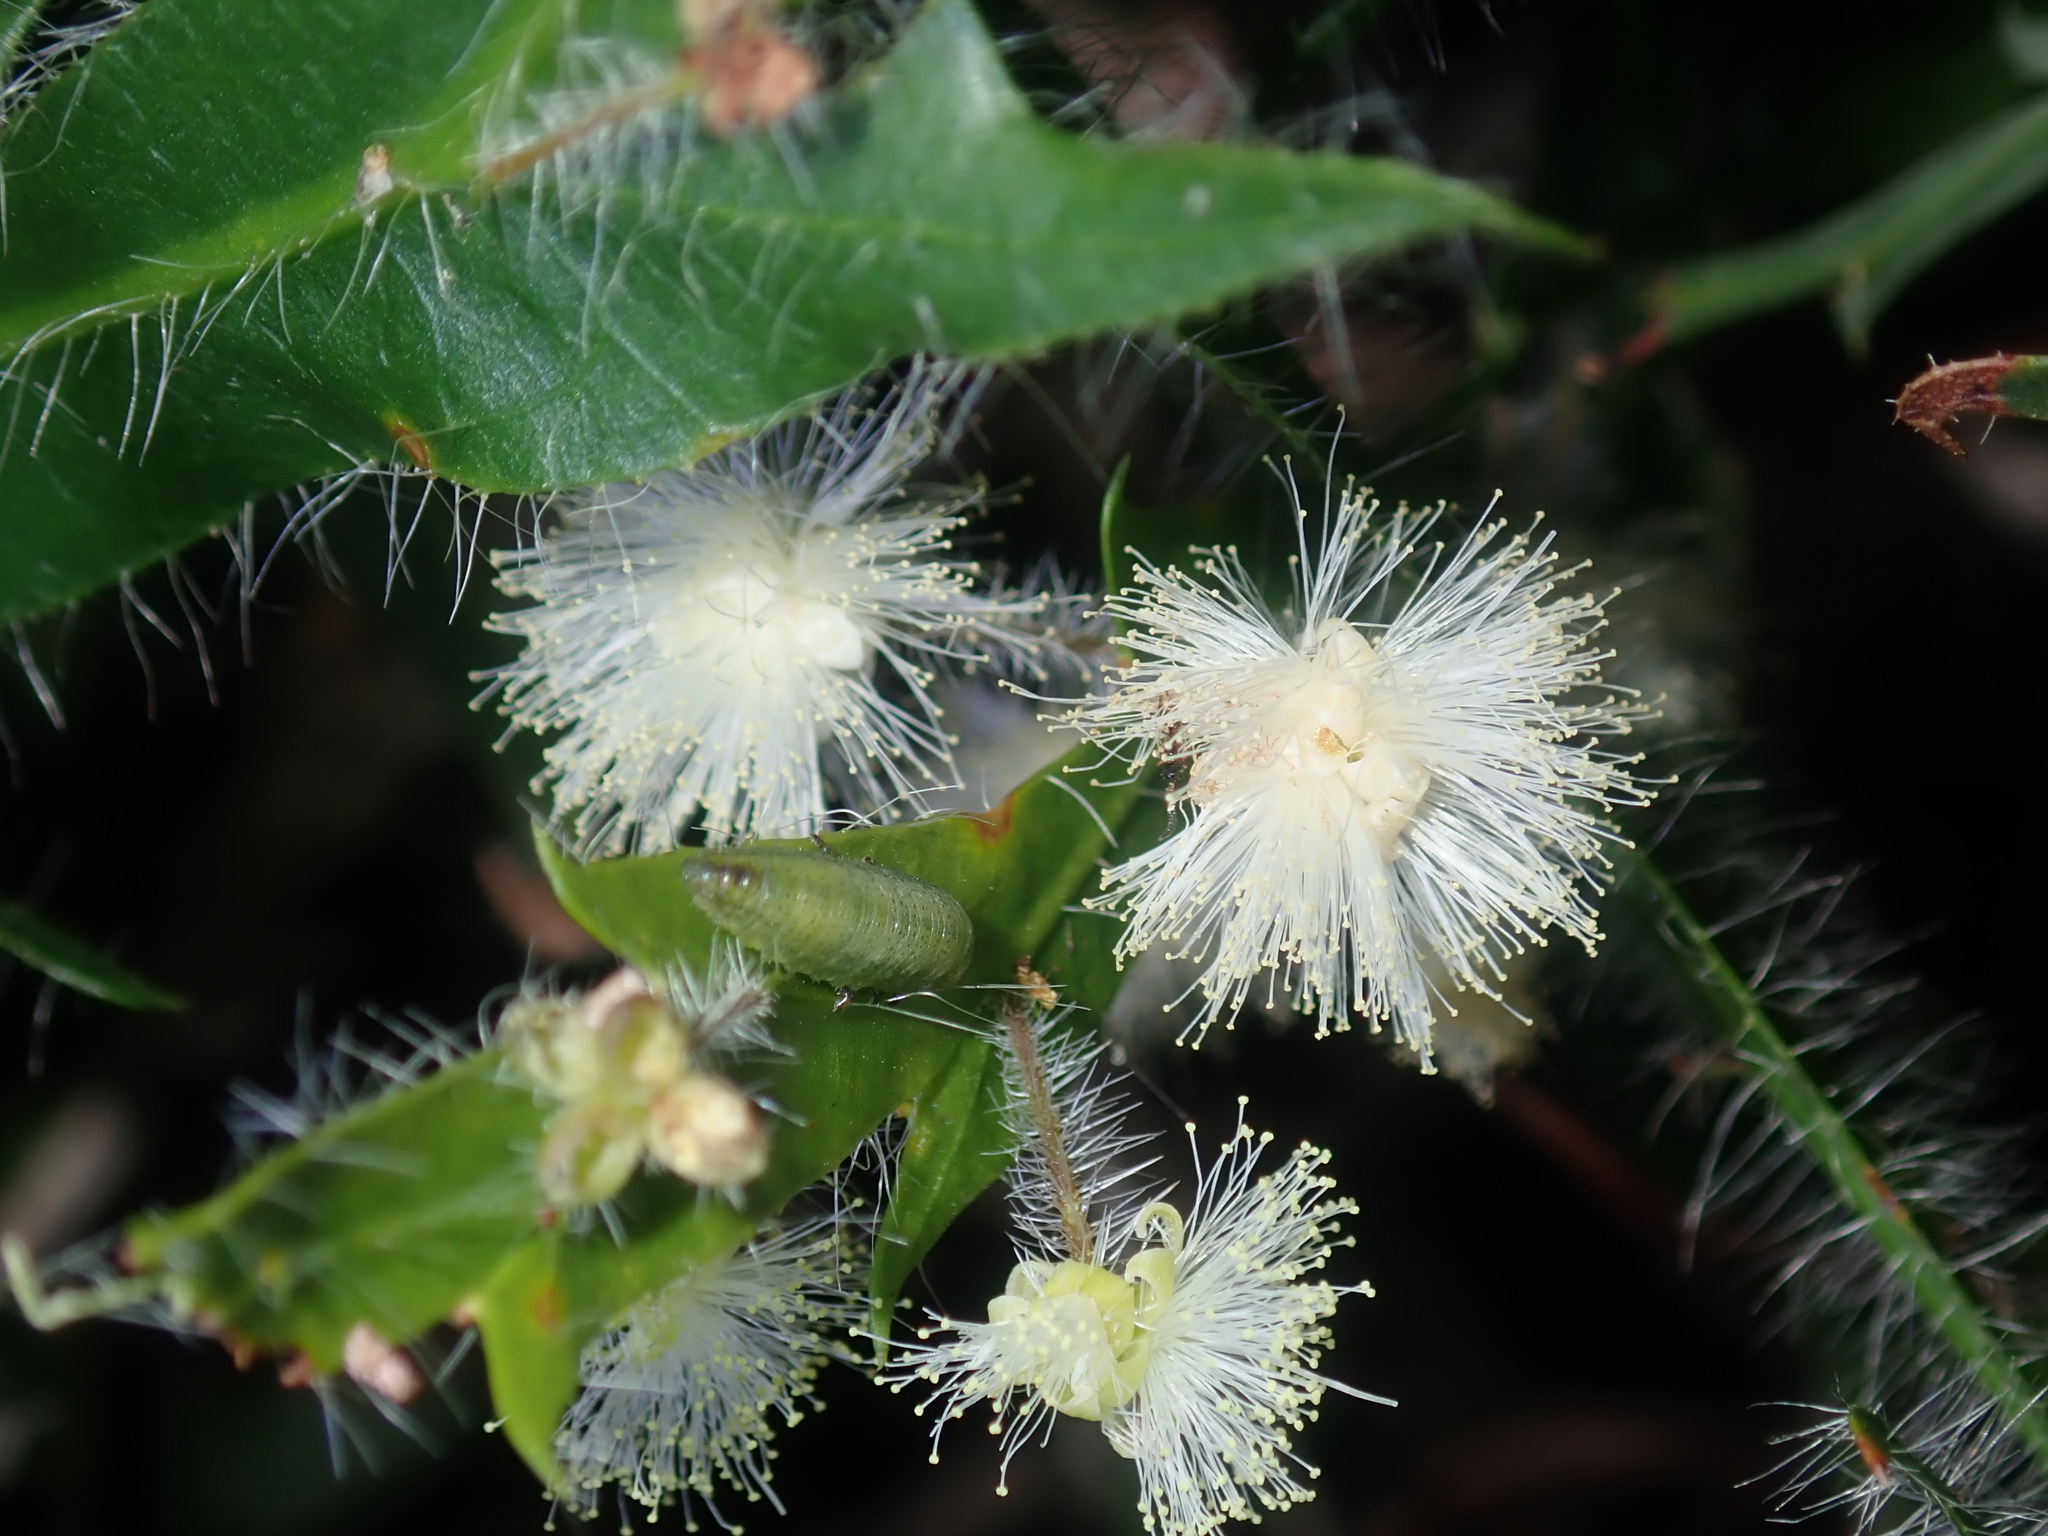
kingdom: Plantae
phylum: Tracheophyta
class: Magnoliopsida
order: Fabales
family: Fabaceae
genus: Acacia
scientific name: Acacia alata
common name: Winged wattle
